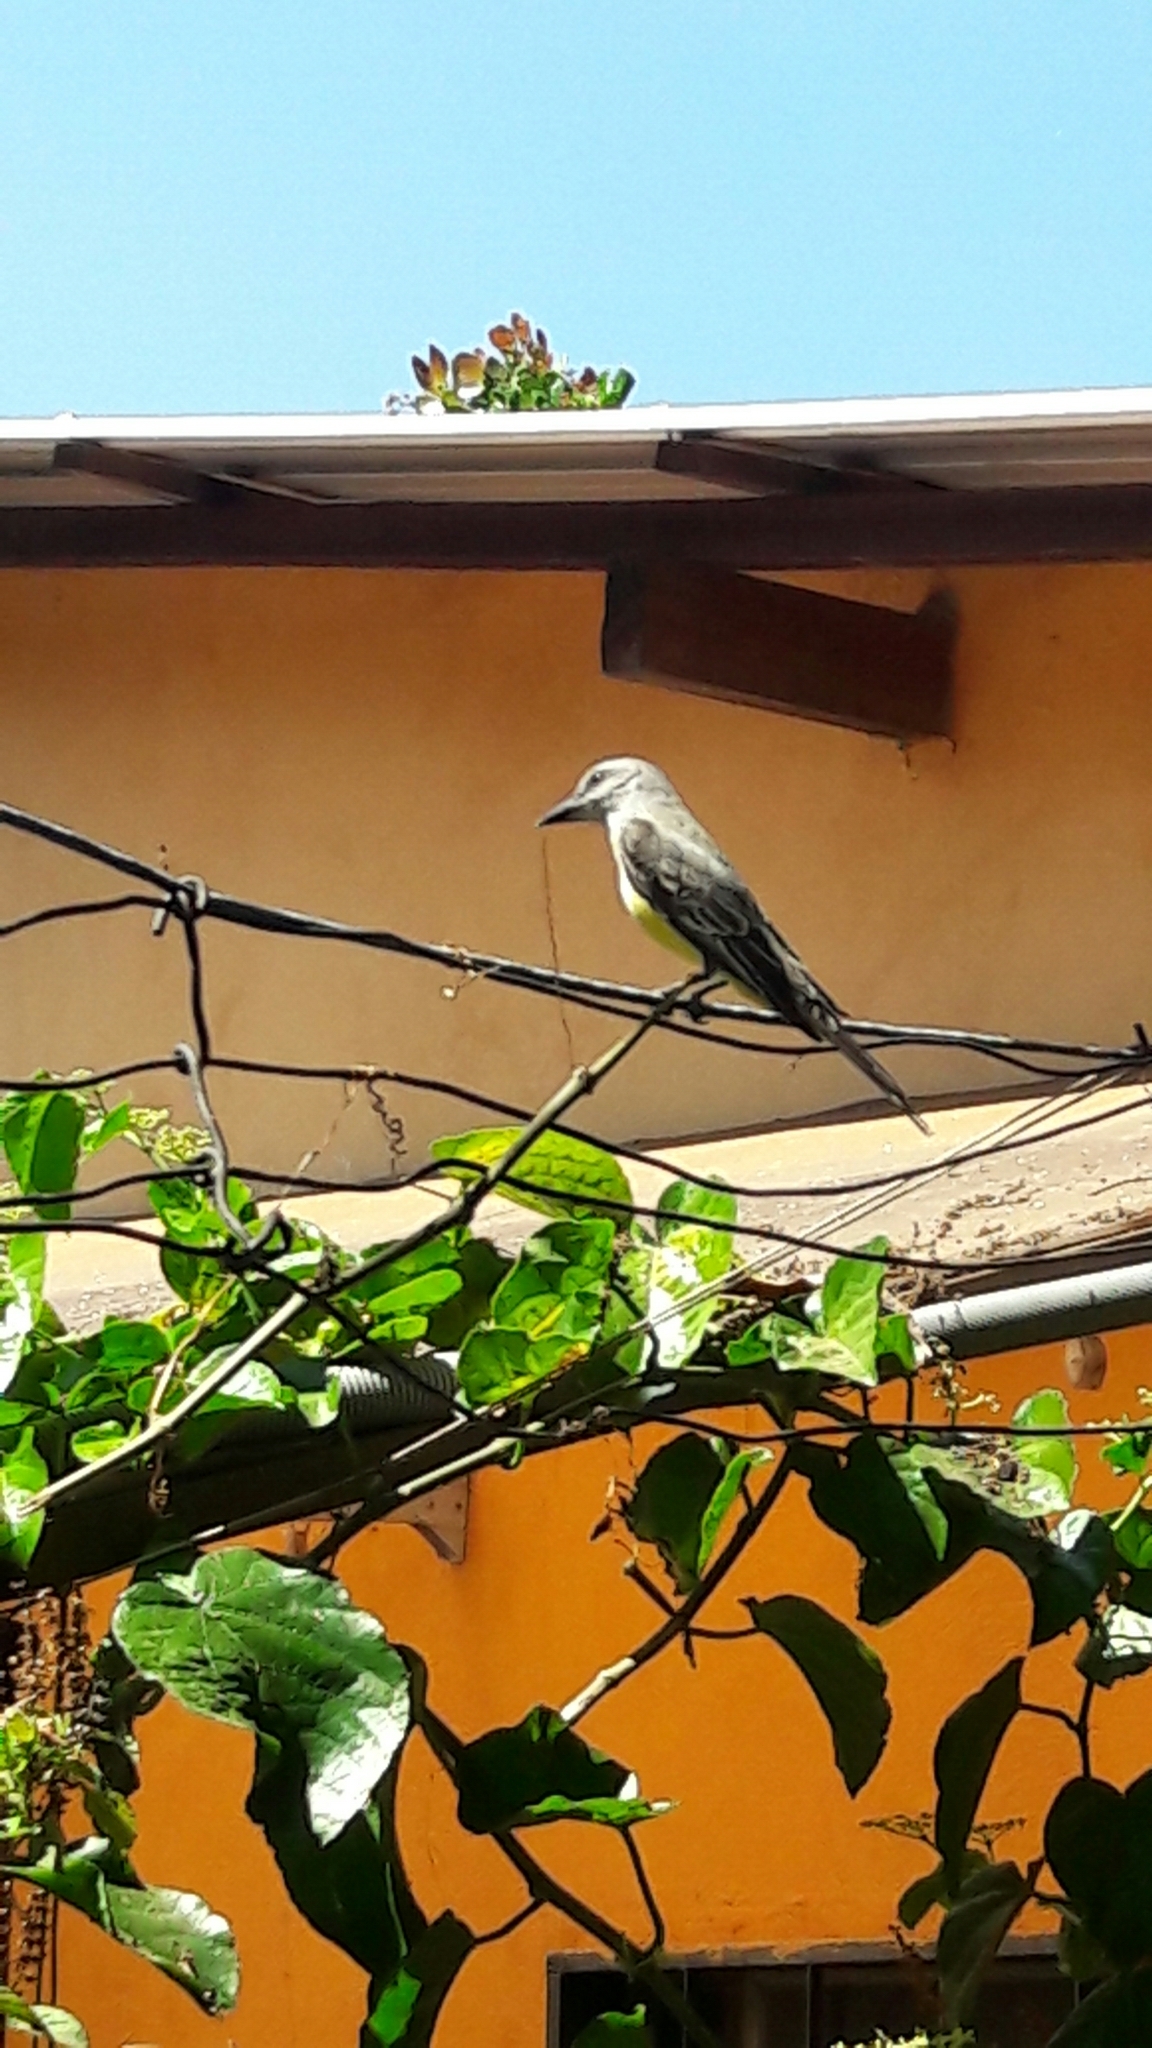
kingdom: Animalia
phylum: Chordata
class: Aves
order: Passeriformes
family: Tyrannidae
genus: Tyrannus
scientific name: Tyrannus melancholicus
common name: Tropical kingbird
